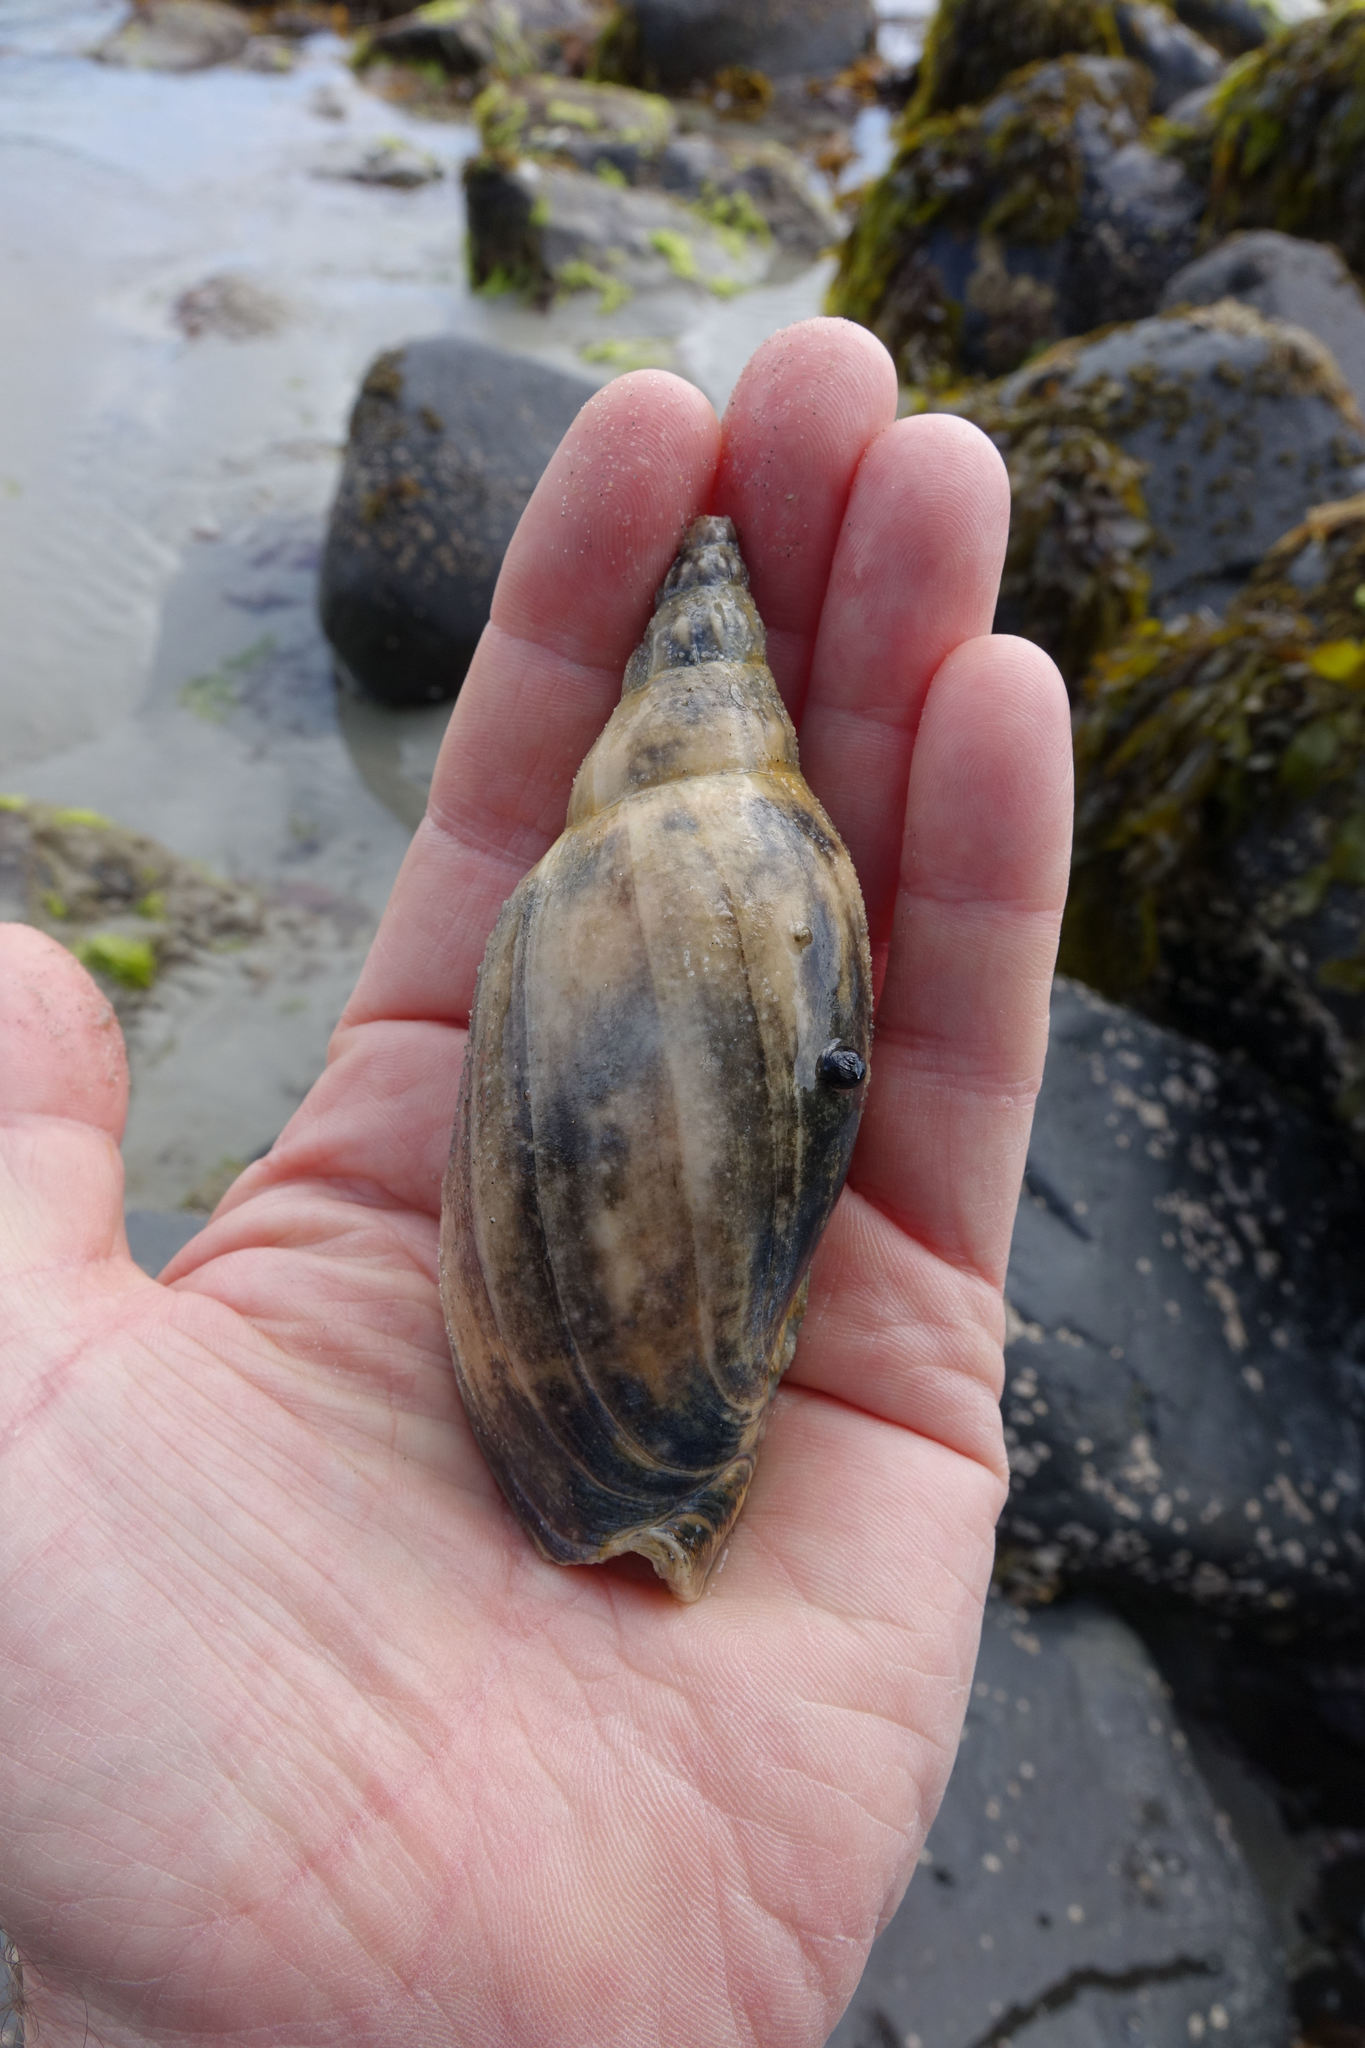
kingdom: Animalia
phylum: Mollusca
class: Gastropoda
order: Neogastropoda
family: Volutidae
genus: Alcithoe
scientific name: Alcithoe arabica
